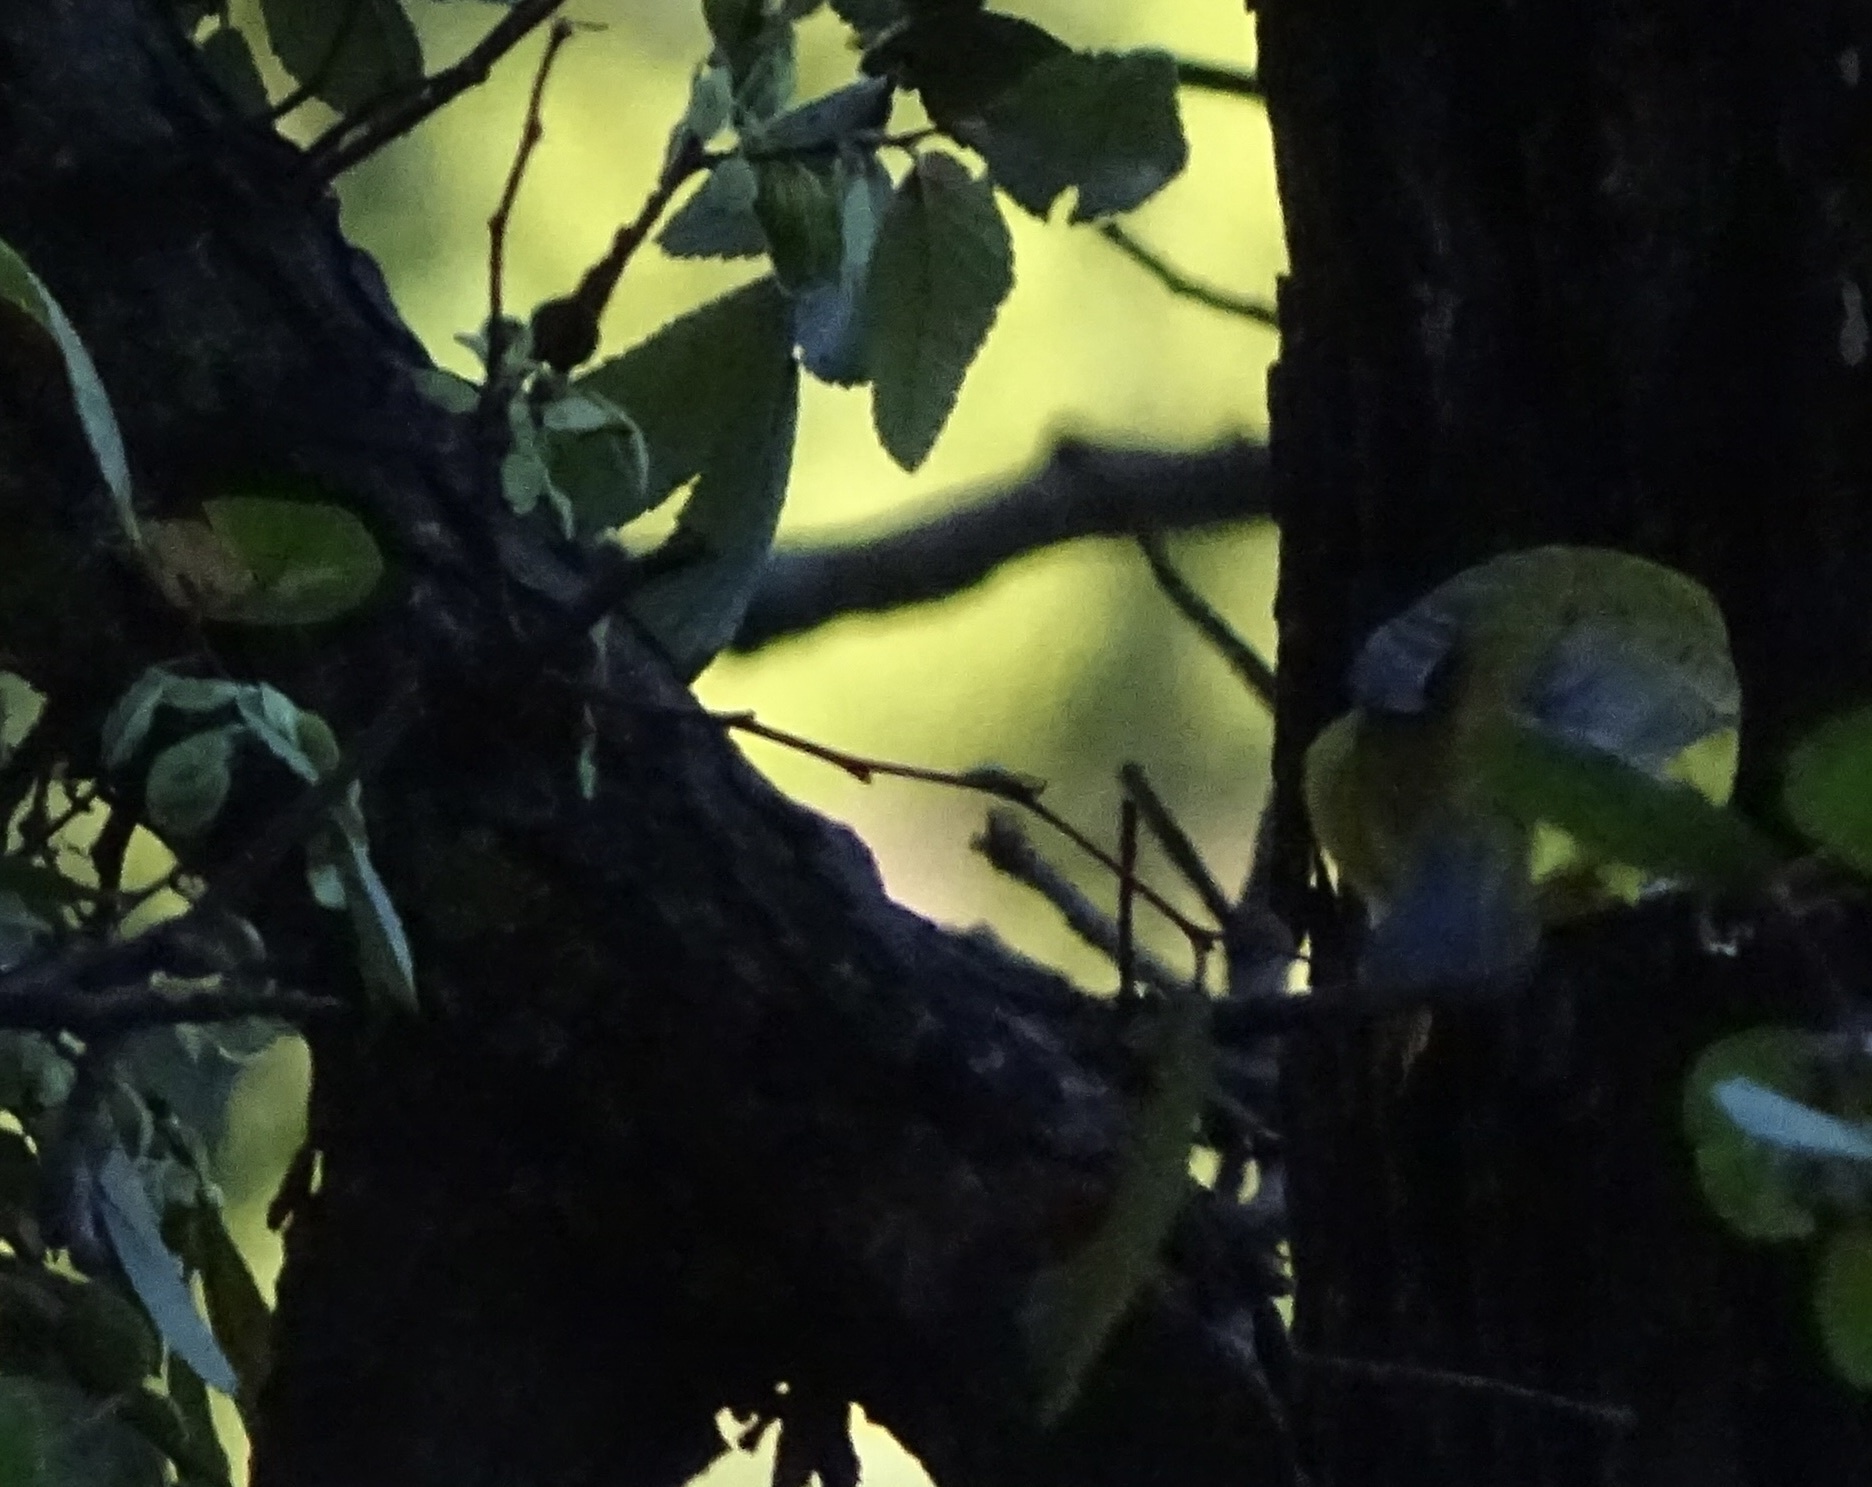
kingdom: Animalia
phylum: Chordata
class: Aves
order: Passeriformes
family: Parulidae
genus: Setophaga
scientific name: Setophaga petechia
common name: Yellow warbler
